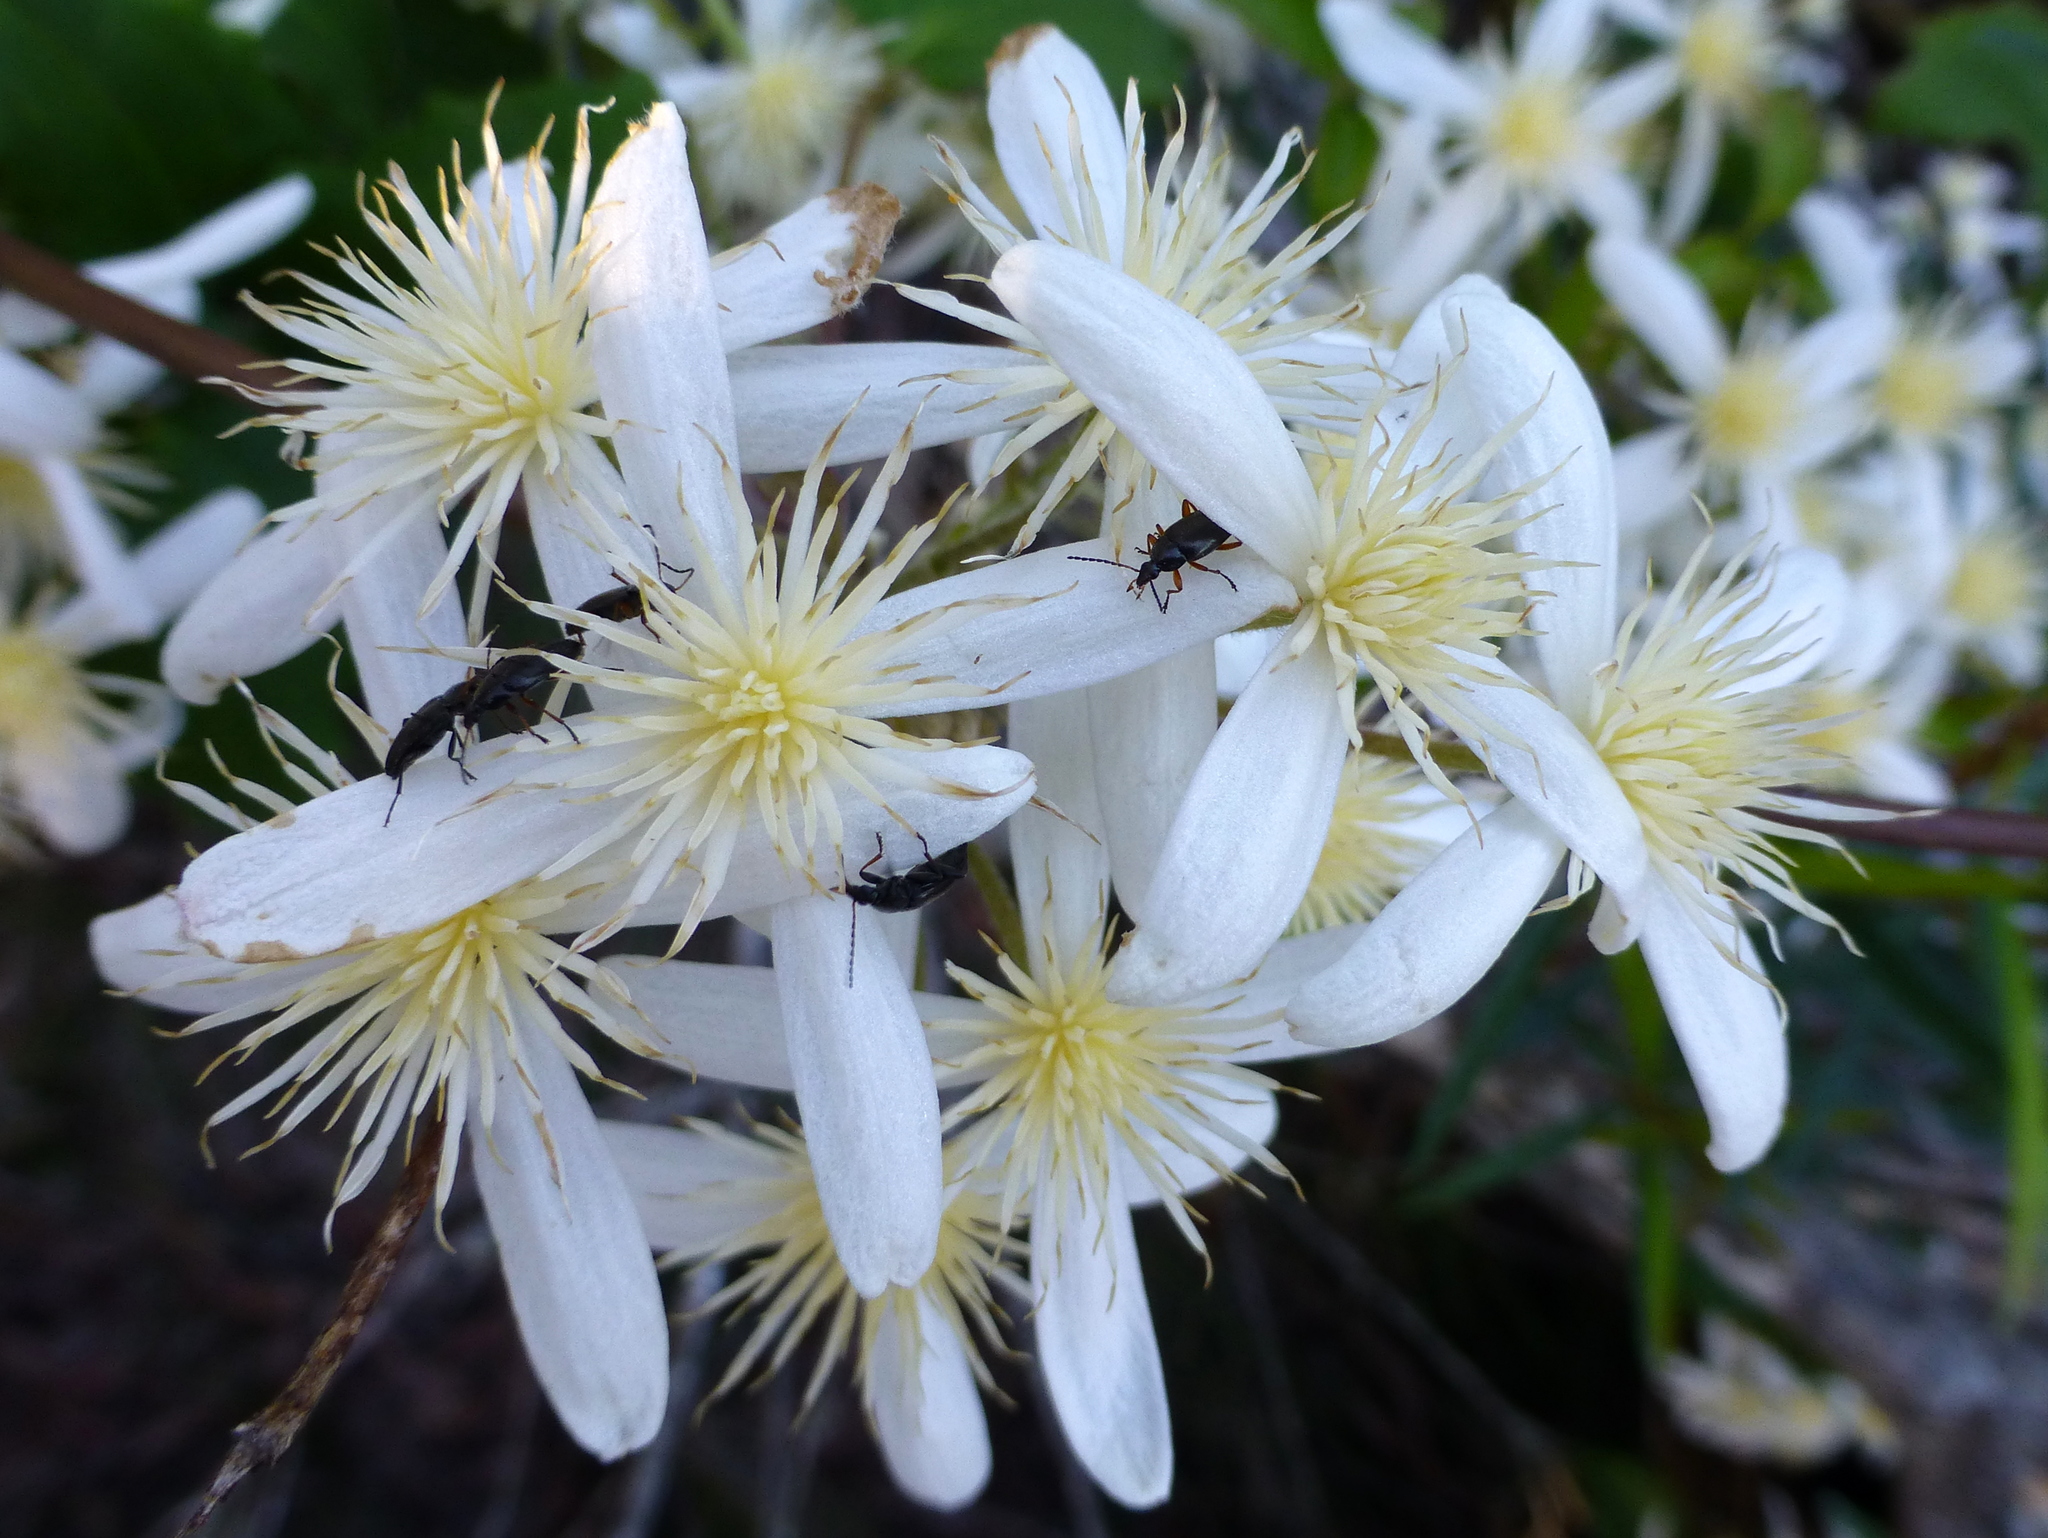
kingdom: Plantae
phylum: Tracheophyta
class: Magnoliopsida
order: Ranunculales
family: Ranunculaceae
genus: Clematis
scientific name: Clematis aristata
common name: Mountain clematis
